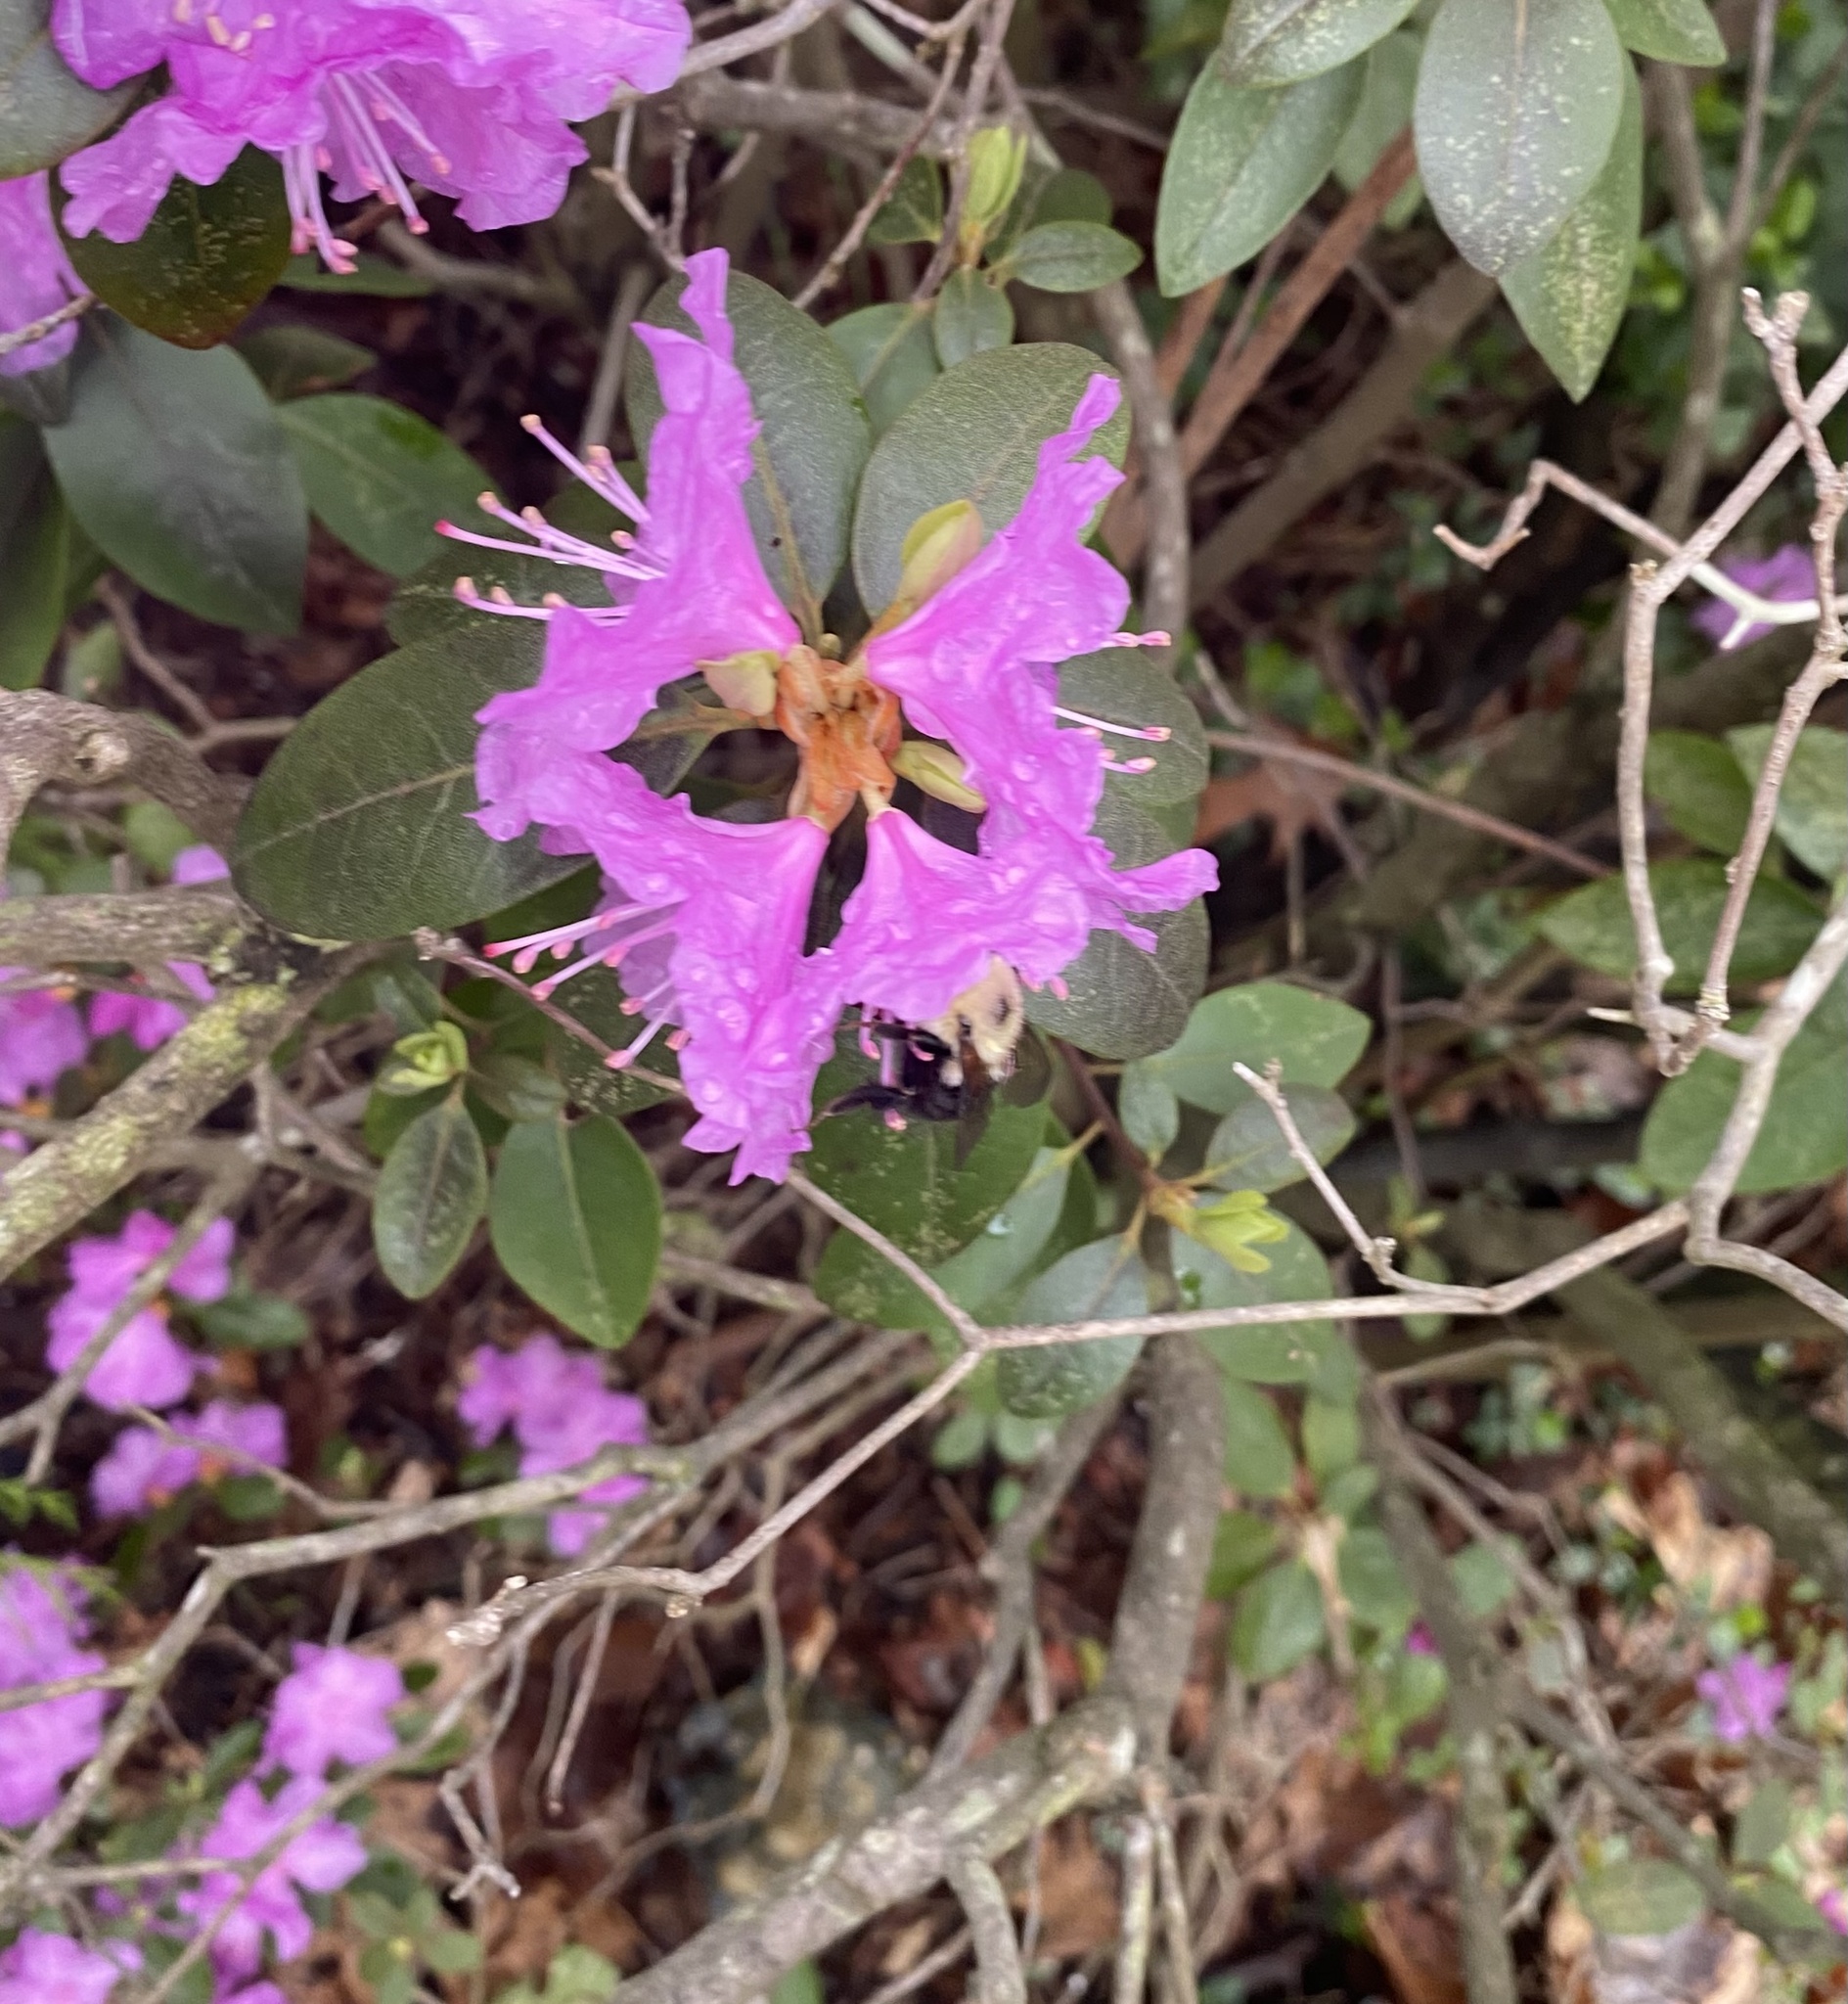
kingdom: Animalia
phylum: Arthropoda
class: Insecta
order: Hymenoptera
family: Apidae
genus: Bombus
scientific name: Bombus bimaculatus
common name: Two-spotted bumble bee
